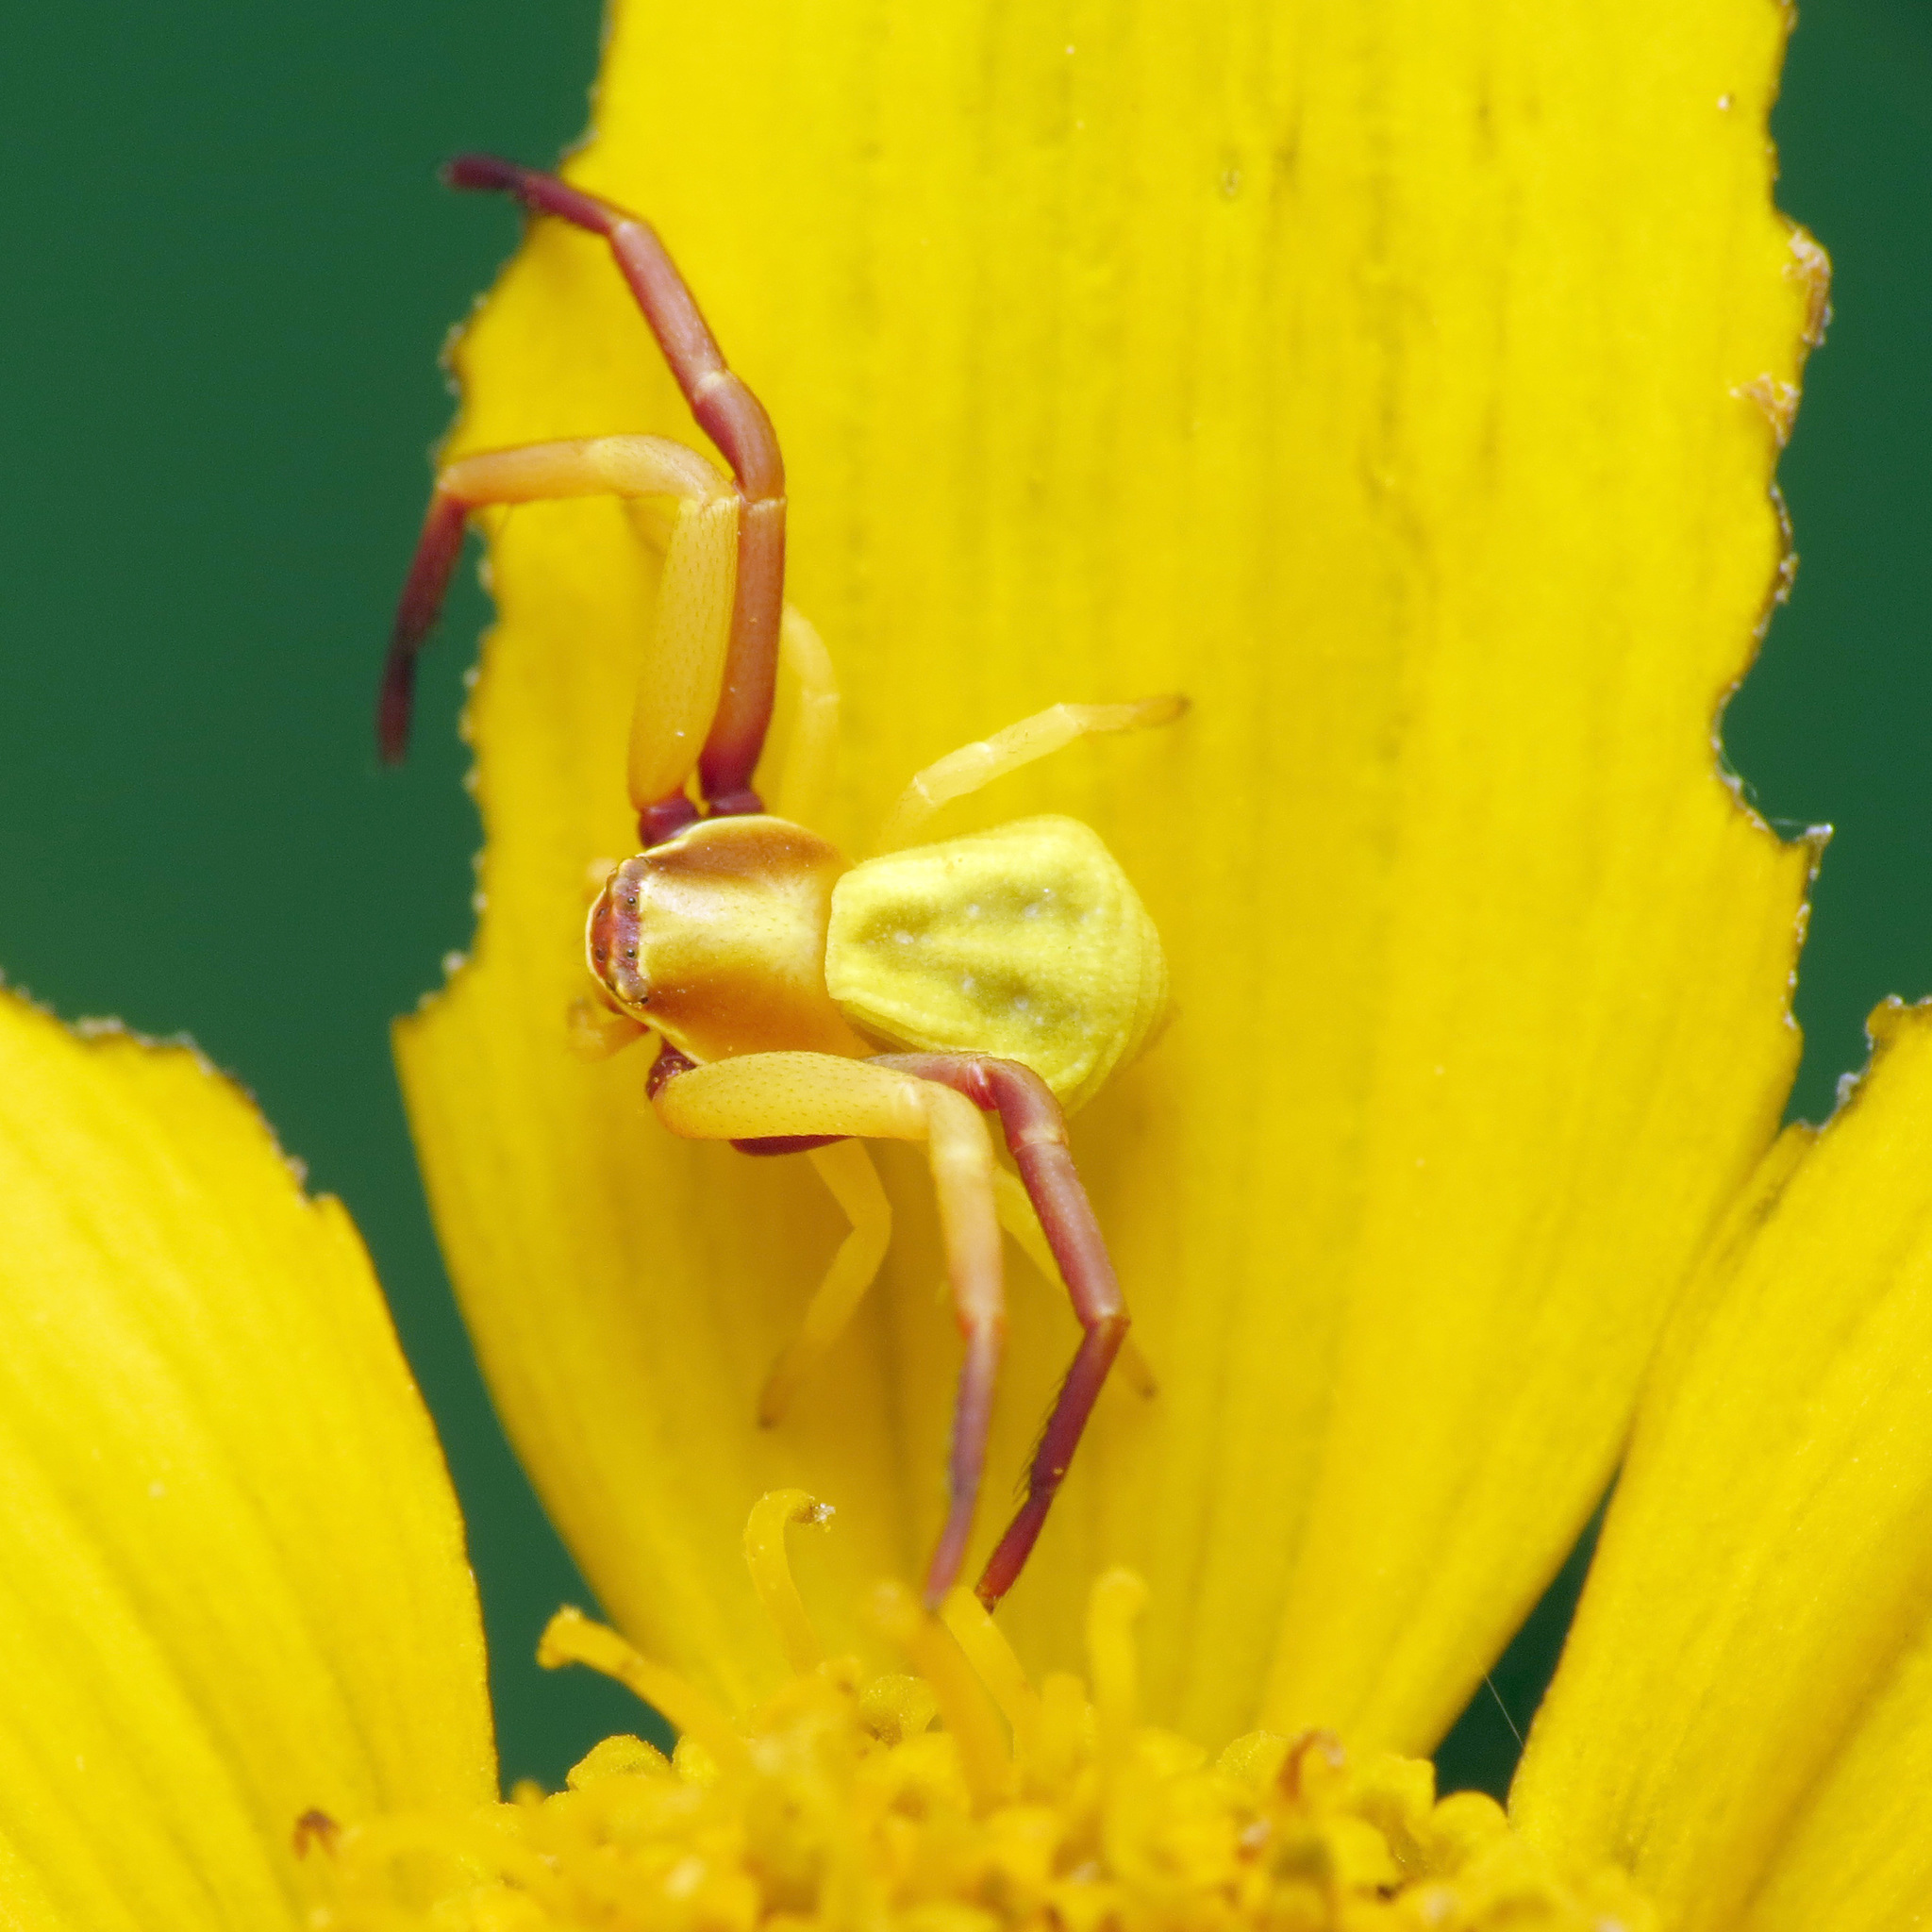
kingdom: Animalia
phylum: Arthropoda
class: Arachnida
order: Araneae
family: Thomisidae
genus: Misumenoides
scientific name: Misumenoides formosipes
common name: White-banded crab spider
